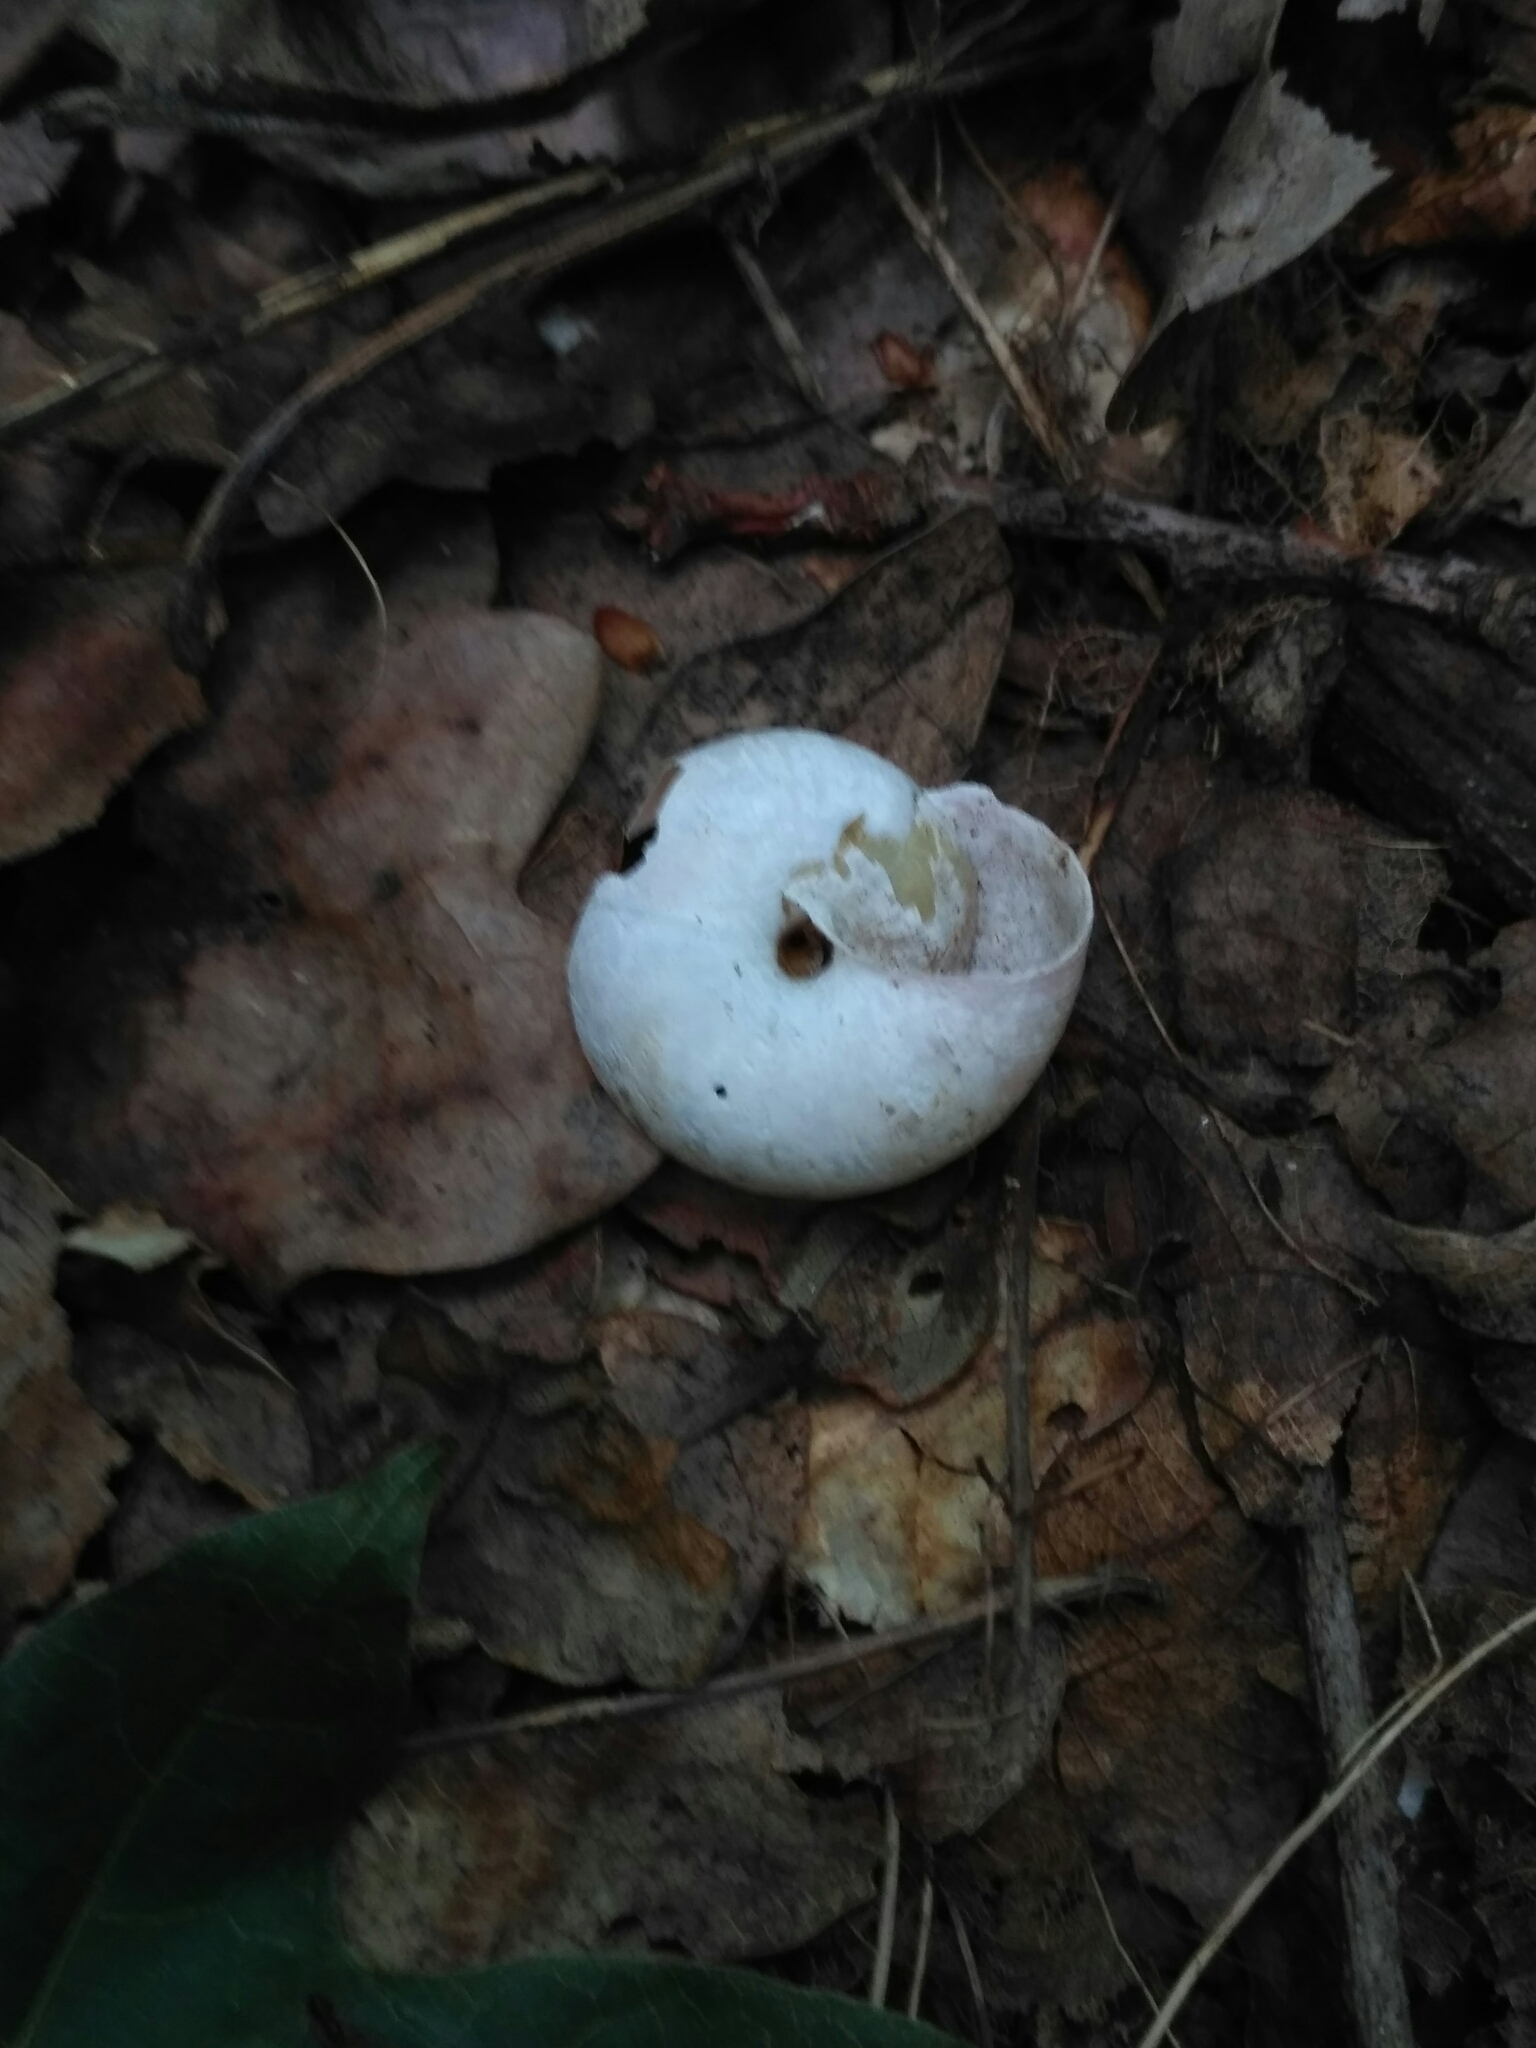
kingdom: Animalia
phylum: Mollusca
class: Gastropoda
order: Stylommatophora
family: Camaenidae
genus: Fruticicola
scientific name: Fruticicola fruticum
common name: Bush snail
